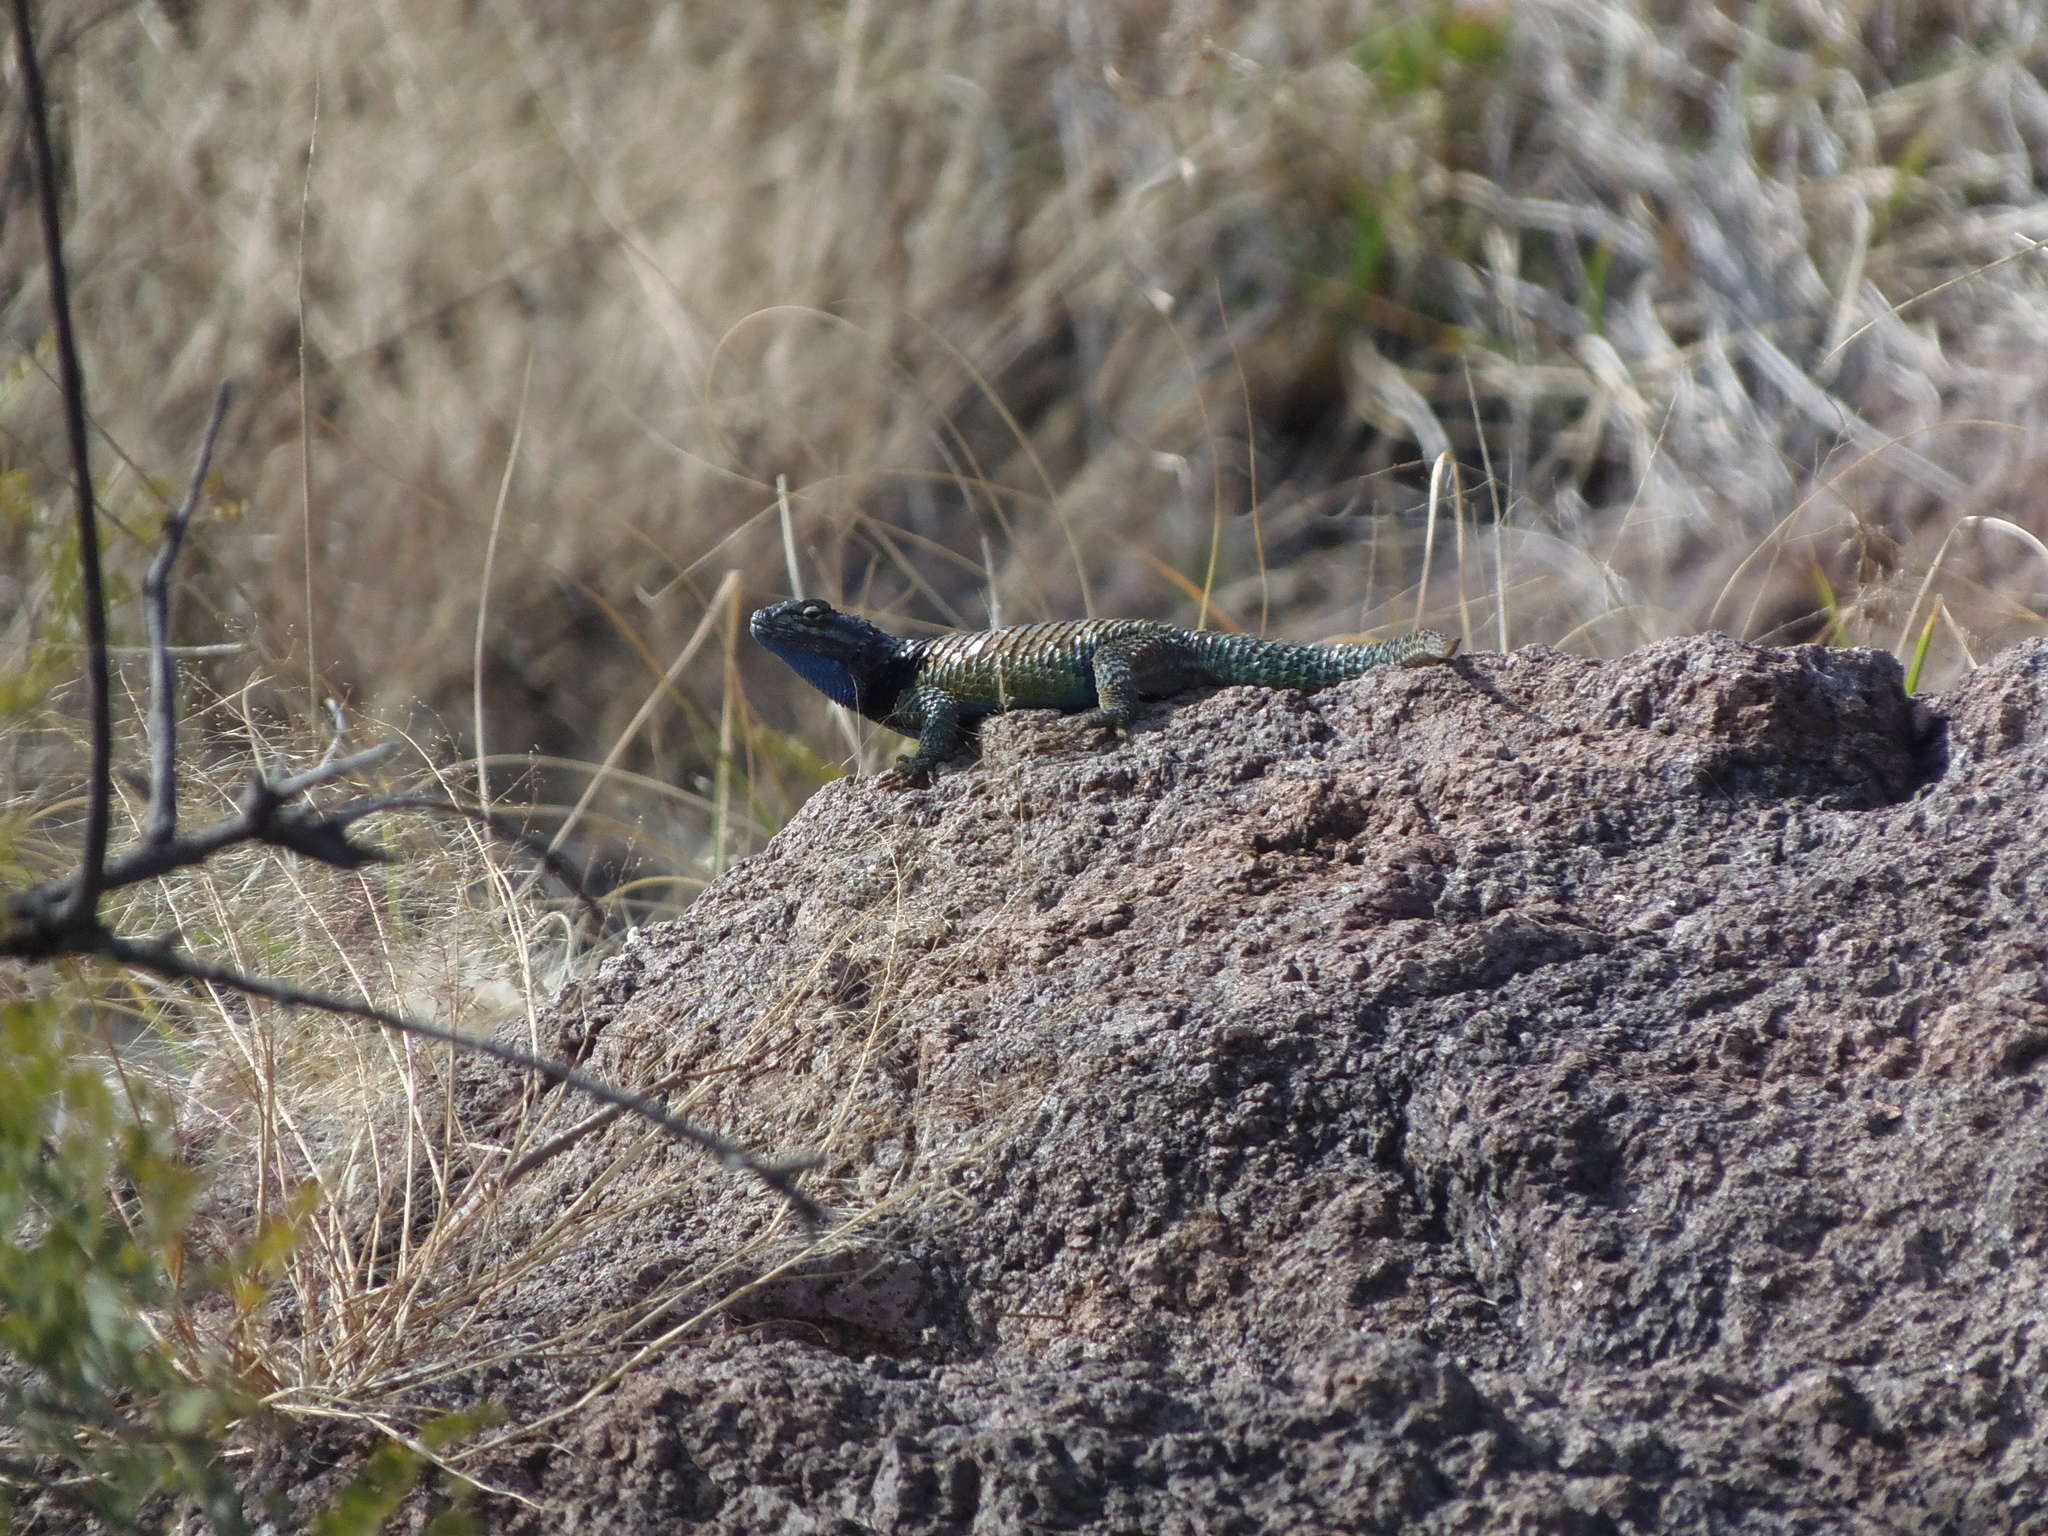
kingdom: Animalia
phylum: Chordata
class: Squamata
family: Phrynosomatidae
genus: Sceloporus
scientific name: Sceloporus torquatus
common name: Central plateau torquate lizard [melanogaster]
